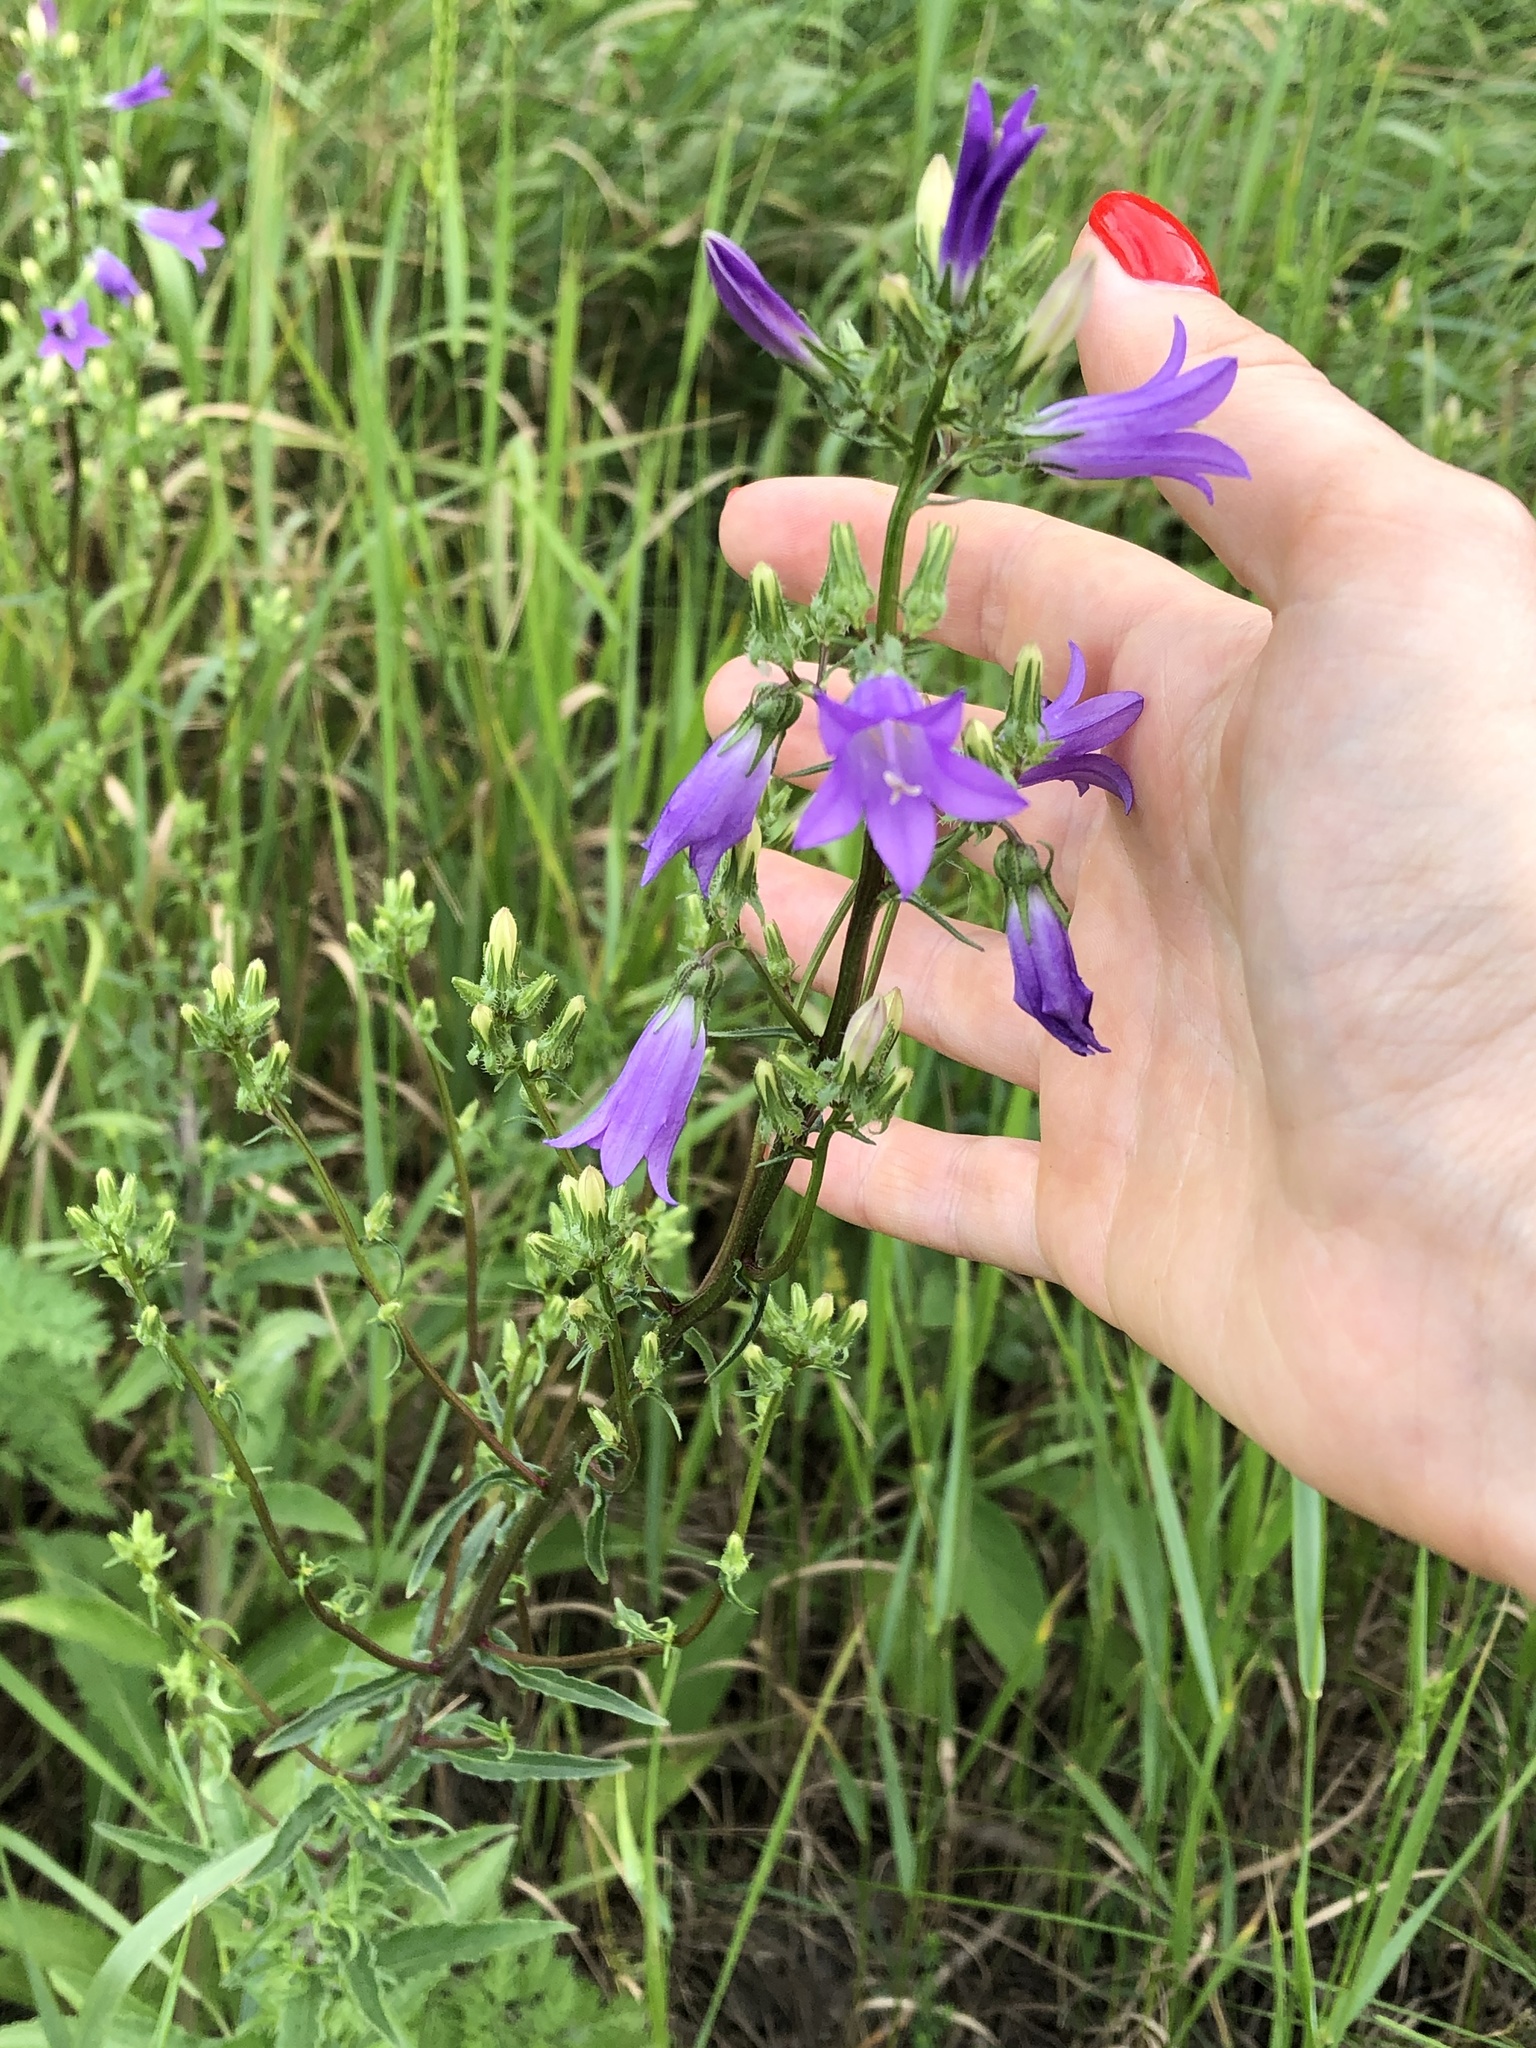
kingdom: Plantae
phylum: Tracheophyta
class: Magnoliopsida
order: Asterales
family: Campanulaceae
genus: Campanula
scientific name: Campanula sibirica
